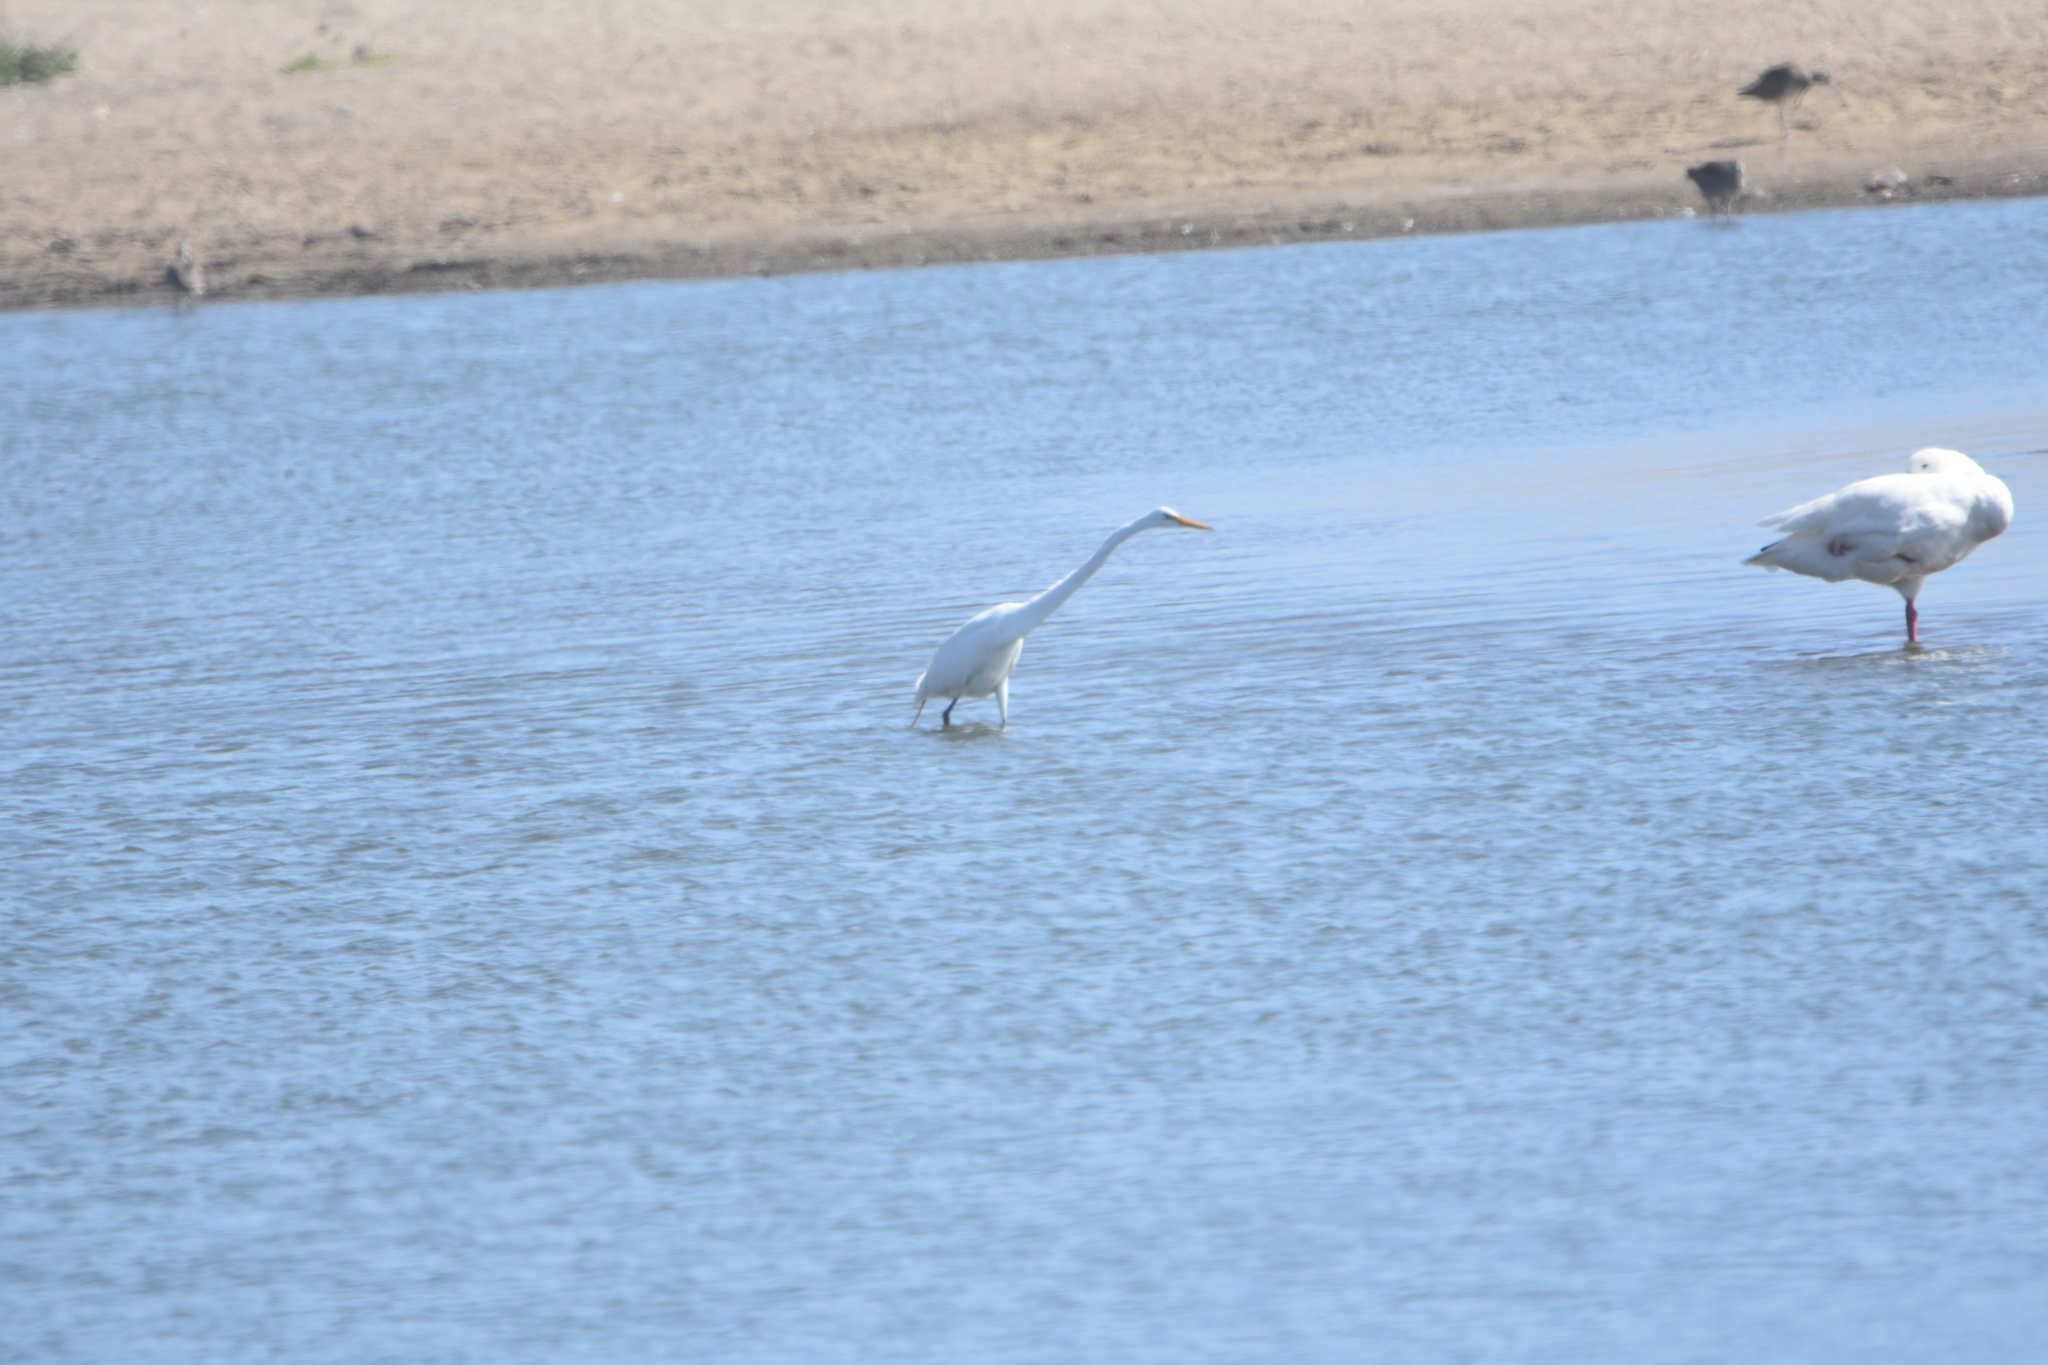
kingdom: Animalia
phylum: Chordata
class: Aves
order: Pelecaniformes
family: Ardeidae
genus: Ardea
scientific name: Ardea alba
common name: Great egret
